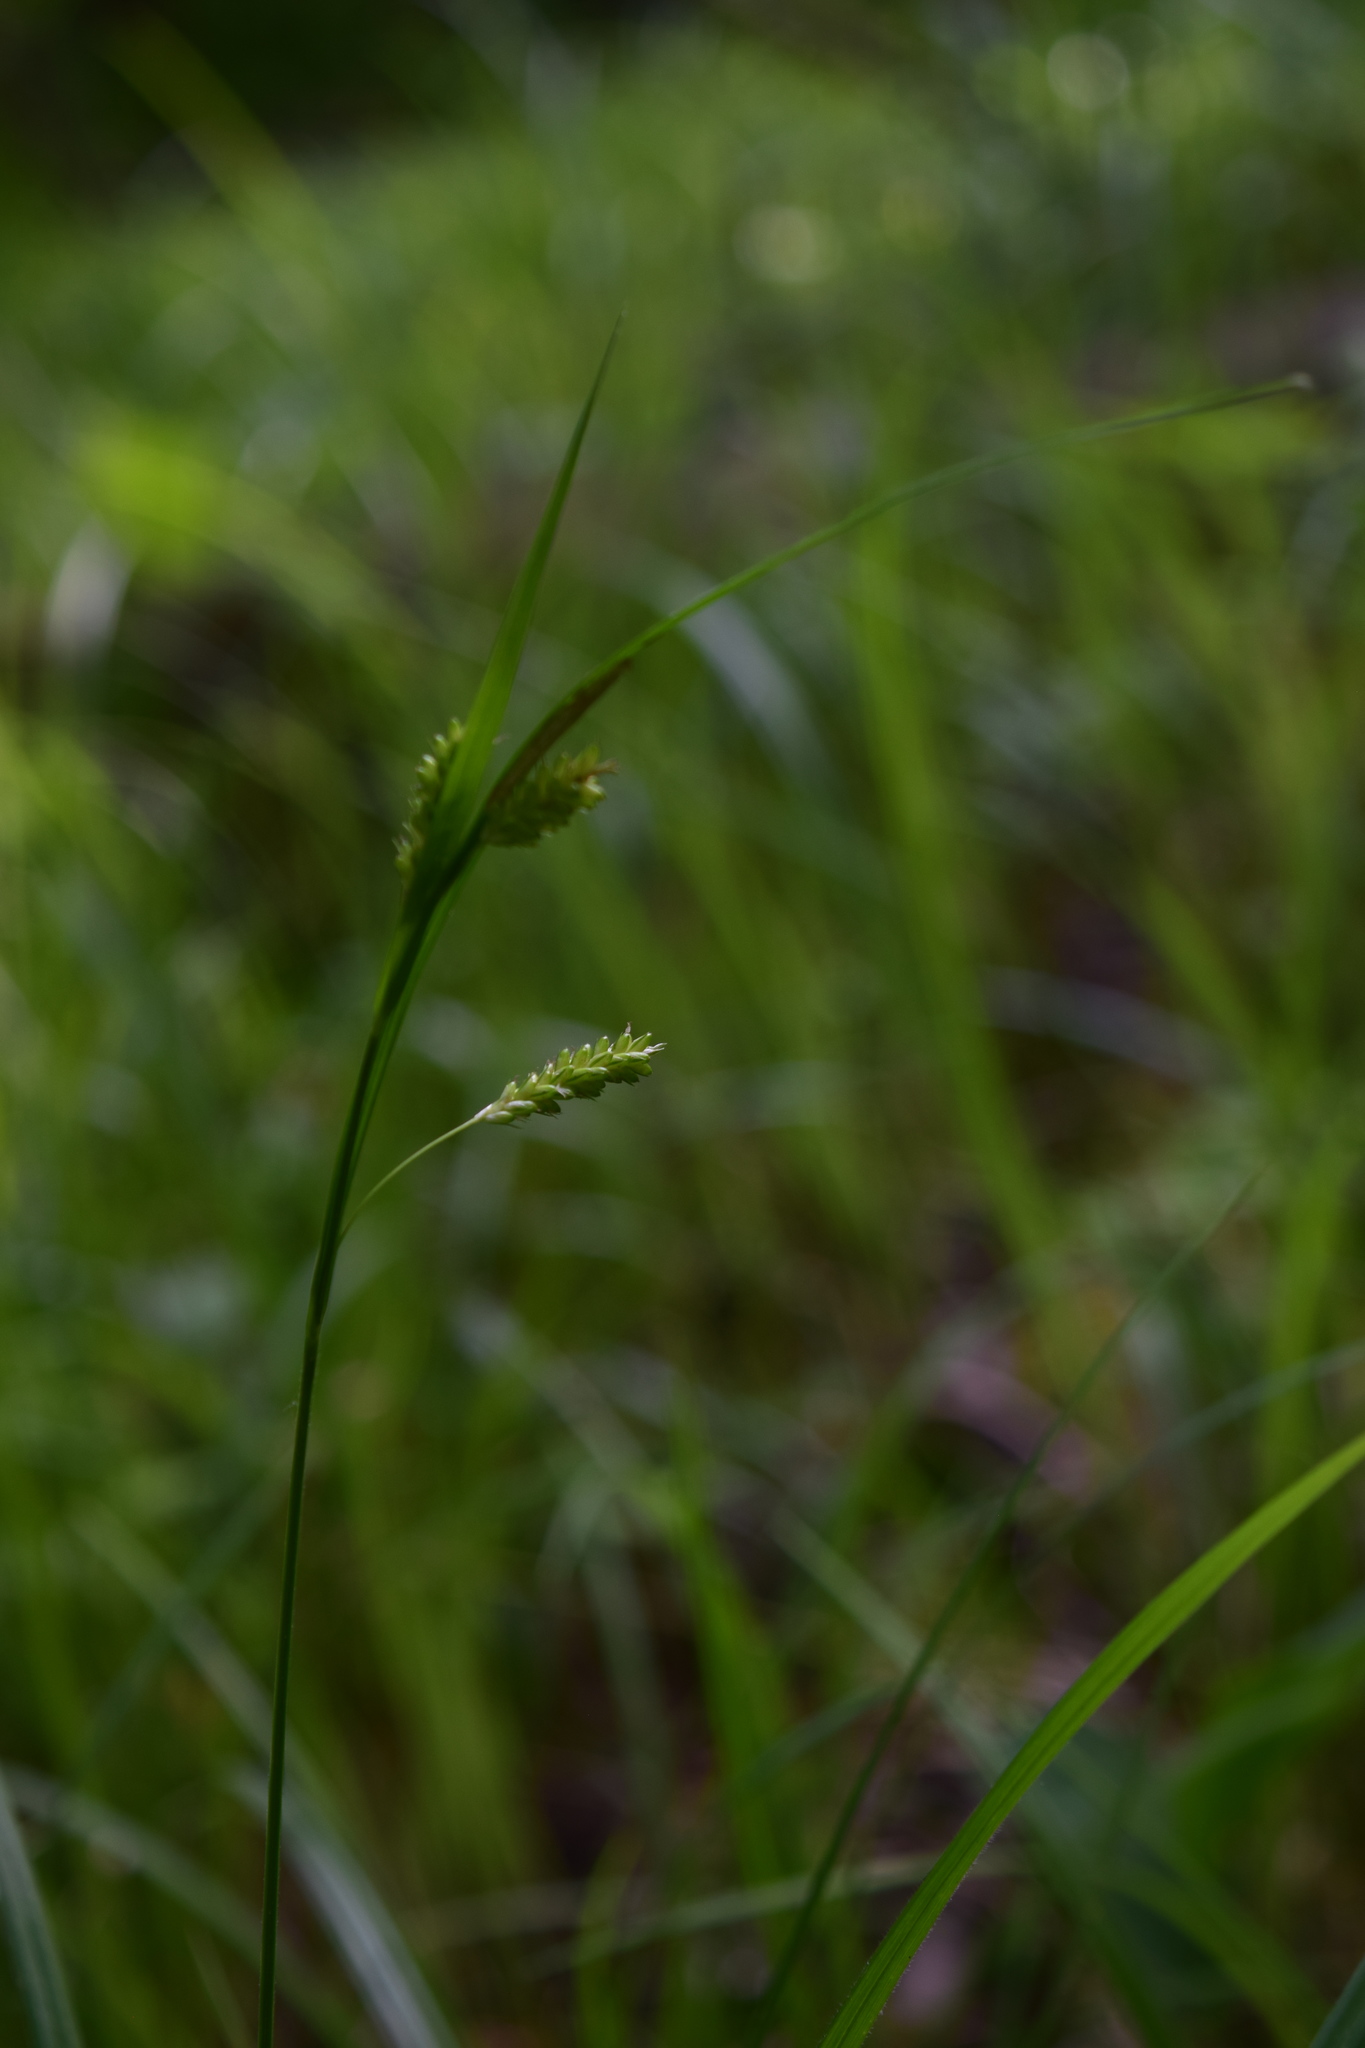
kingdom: Plantae
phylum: Tracheophyta
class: Liliopsida
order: Poales
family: Cyperaceae
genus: Carex
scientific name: Carex pallescens
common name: Pale sedge
